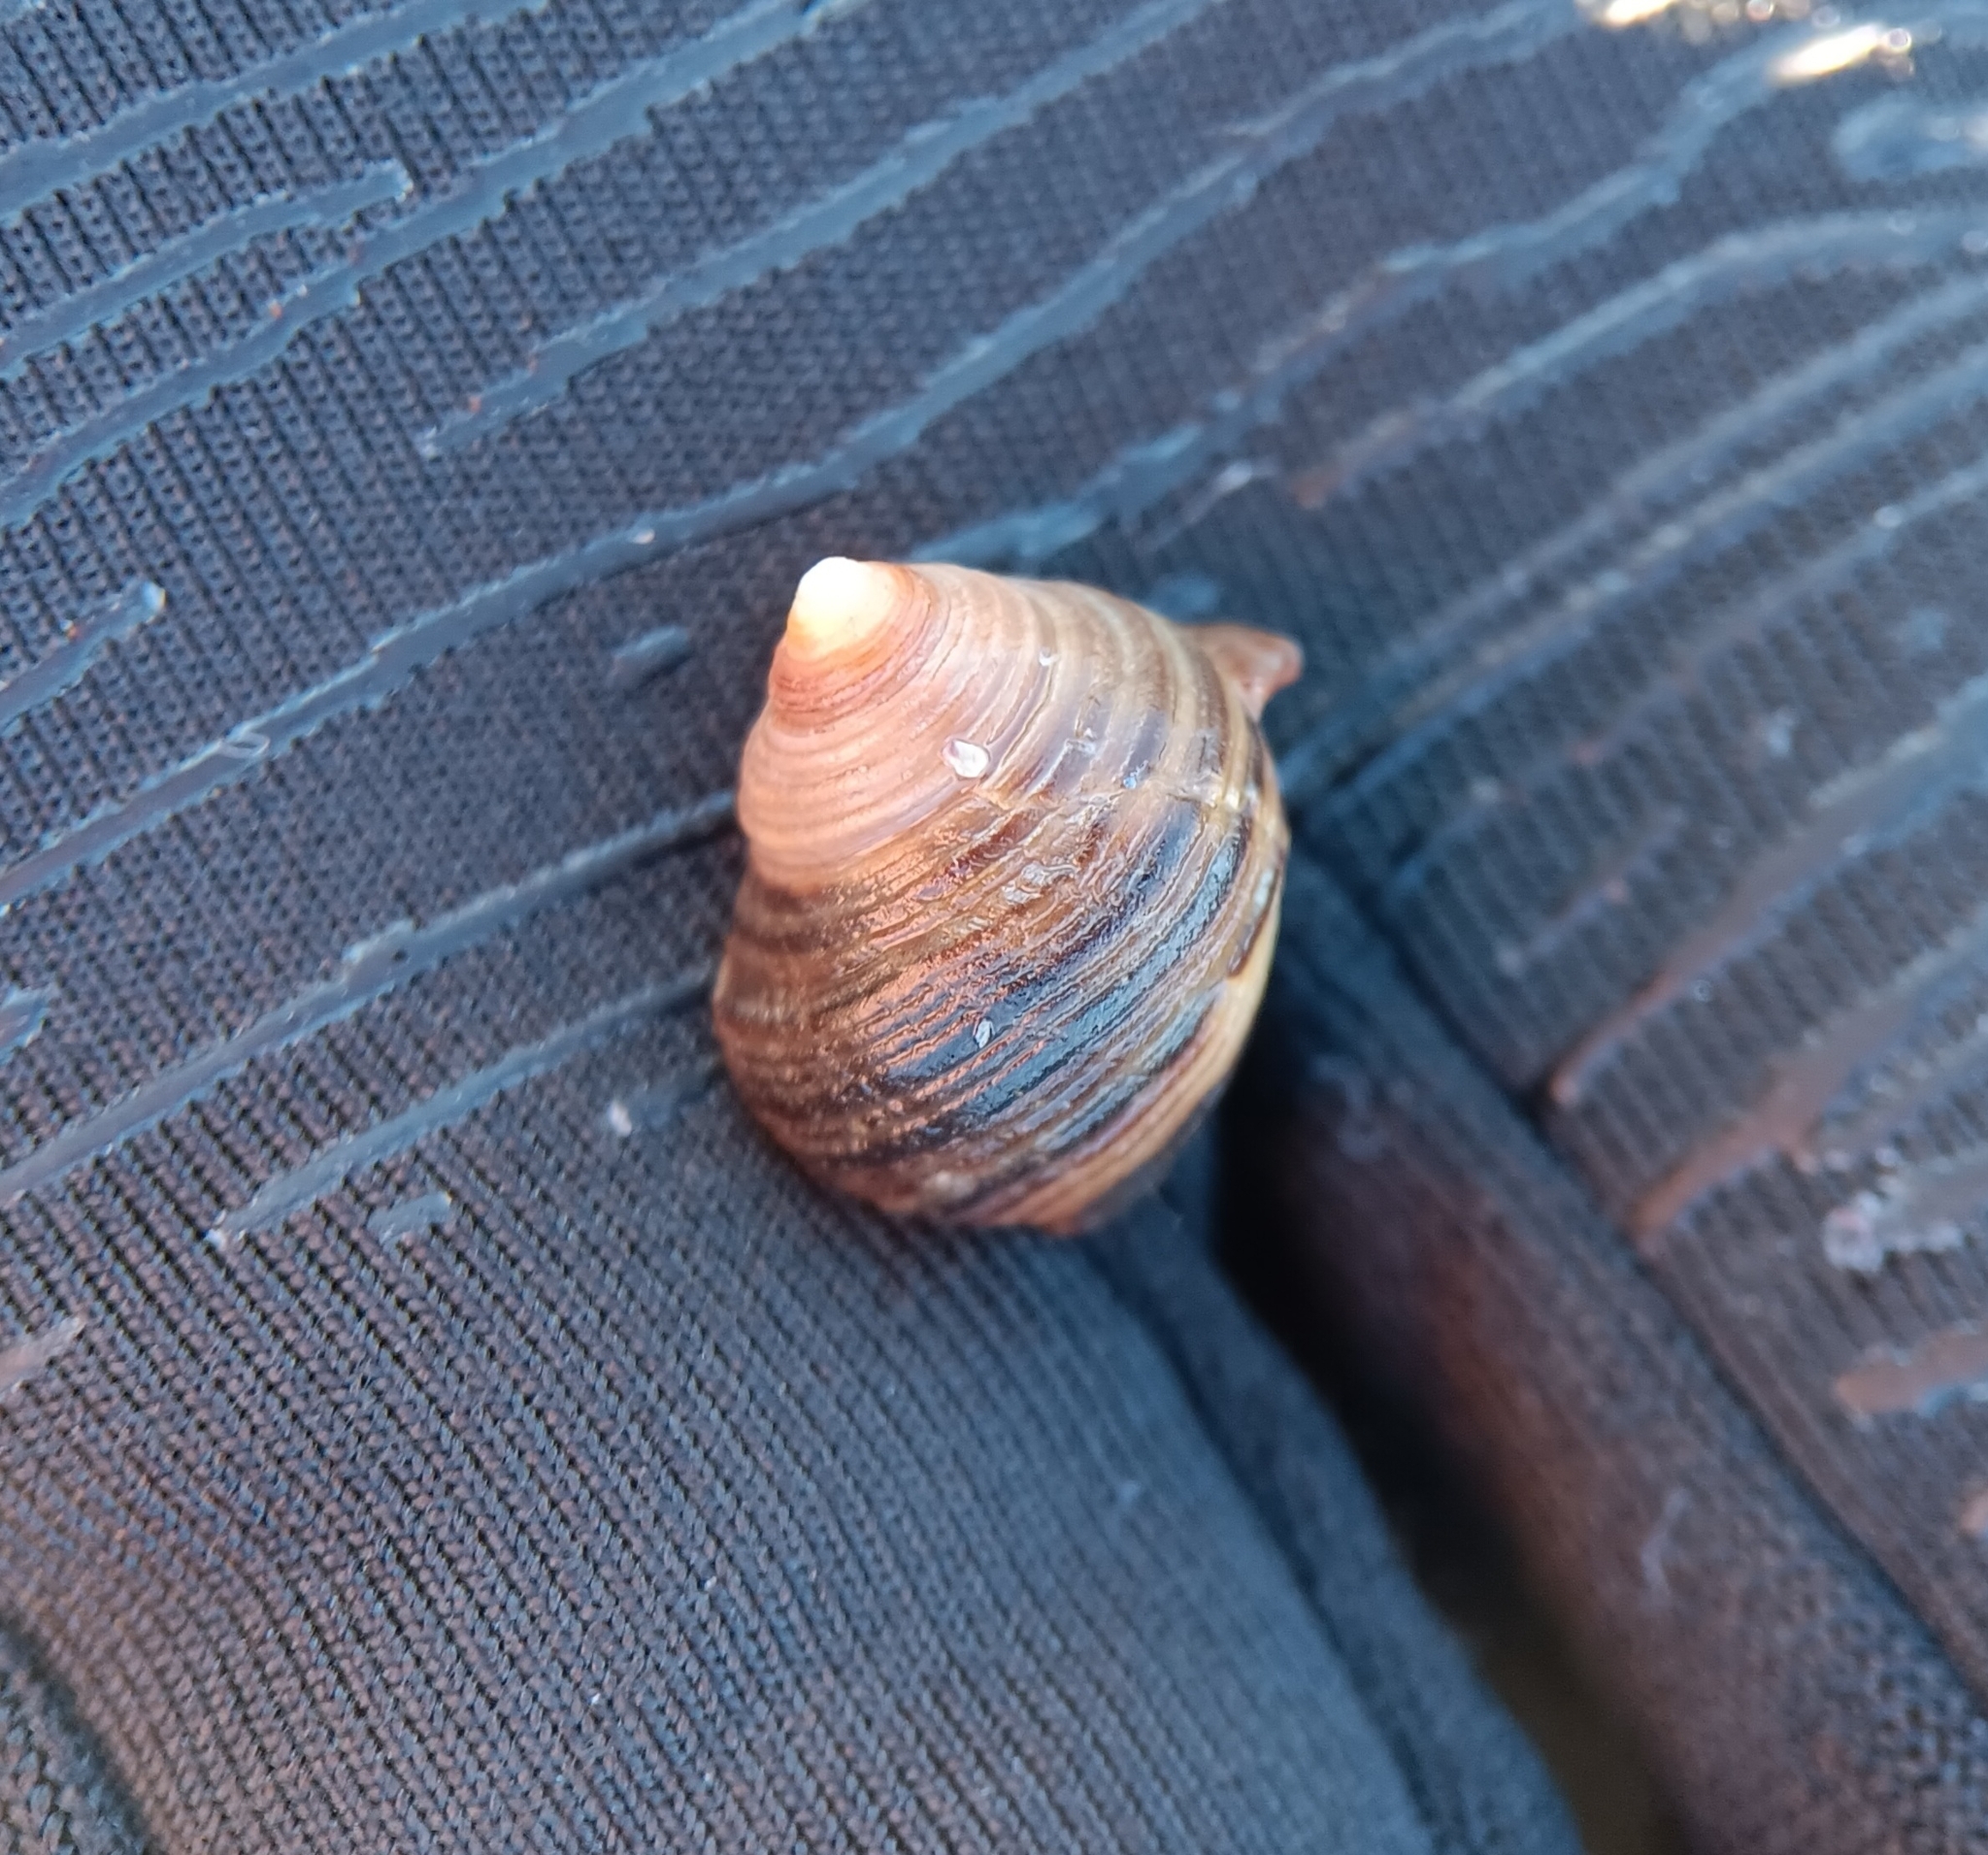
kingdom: Animalia
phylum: Mollusca
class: Gastropoda
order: Littorinimorpha
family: Littorinidae
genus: Littorina
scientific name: Littorina littorea
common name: Common periwinkle
